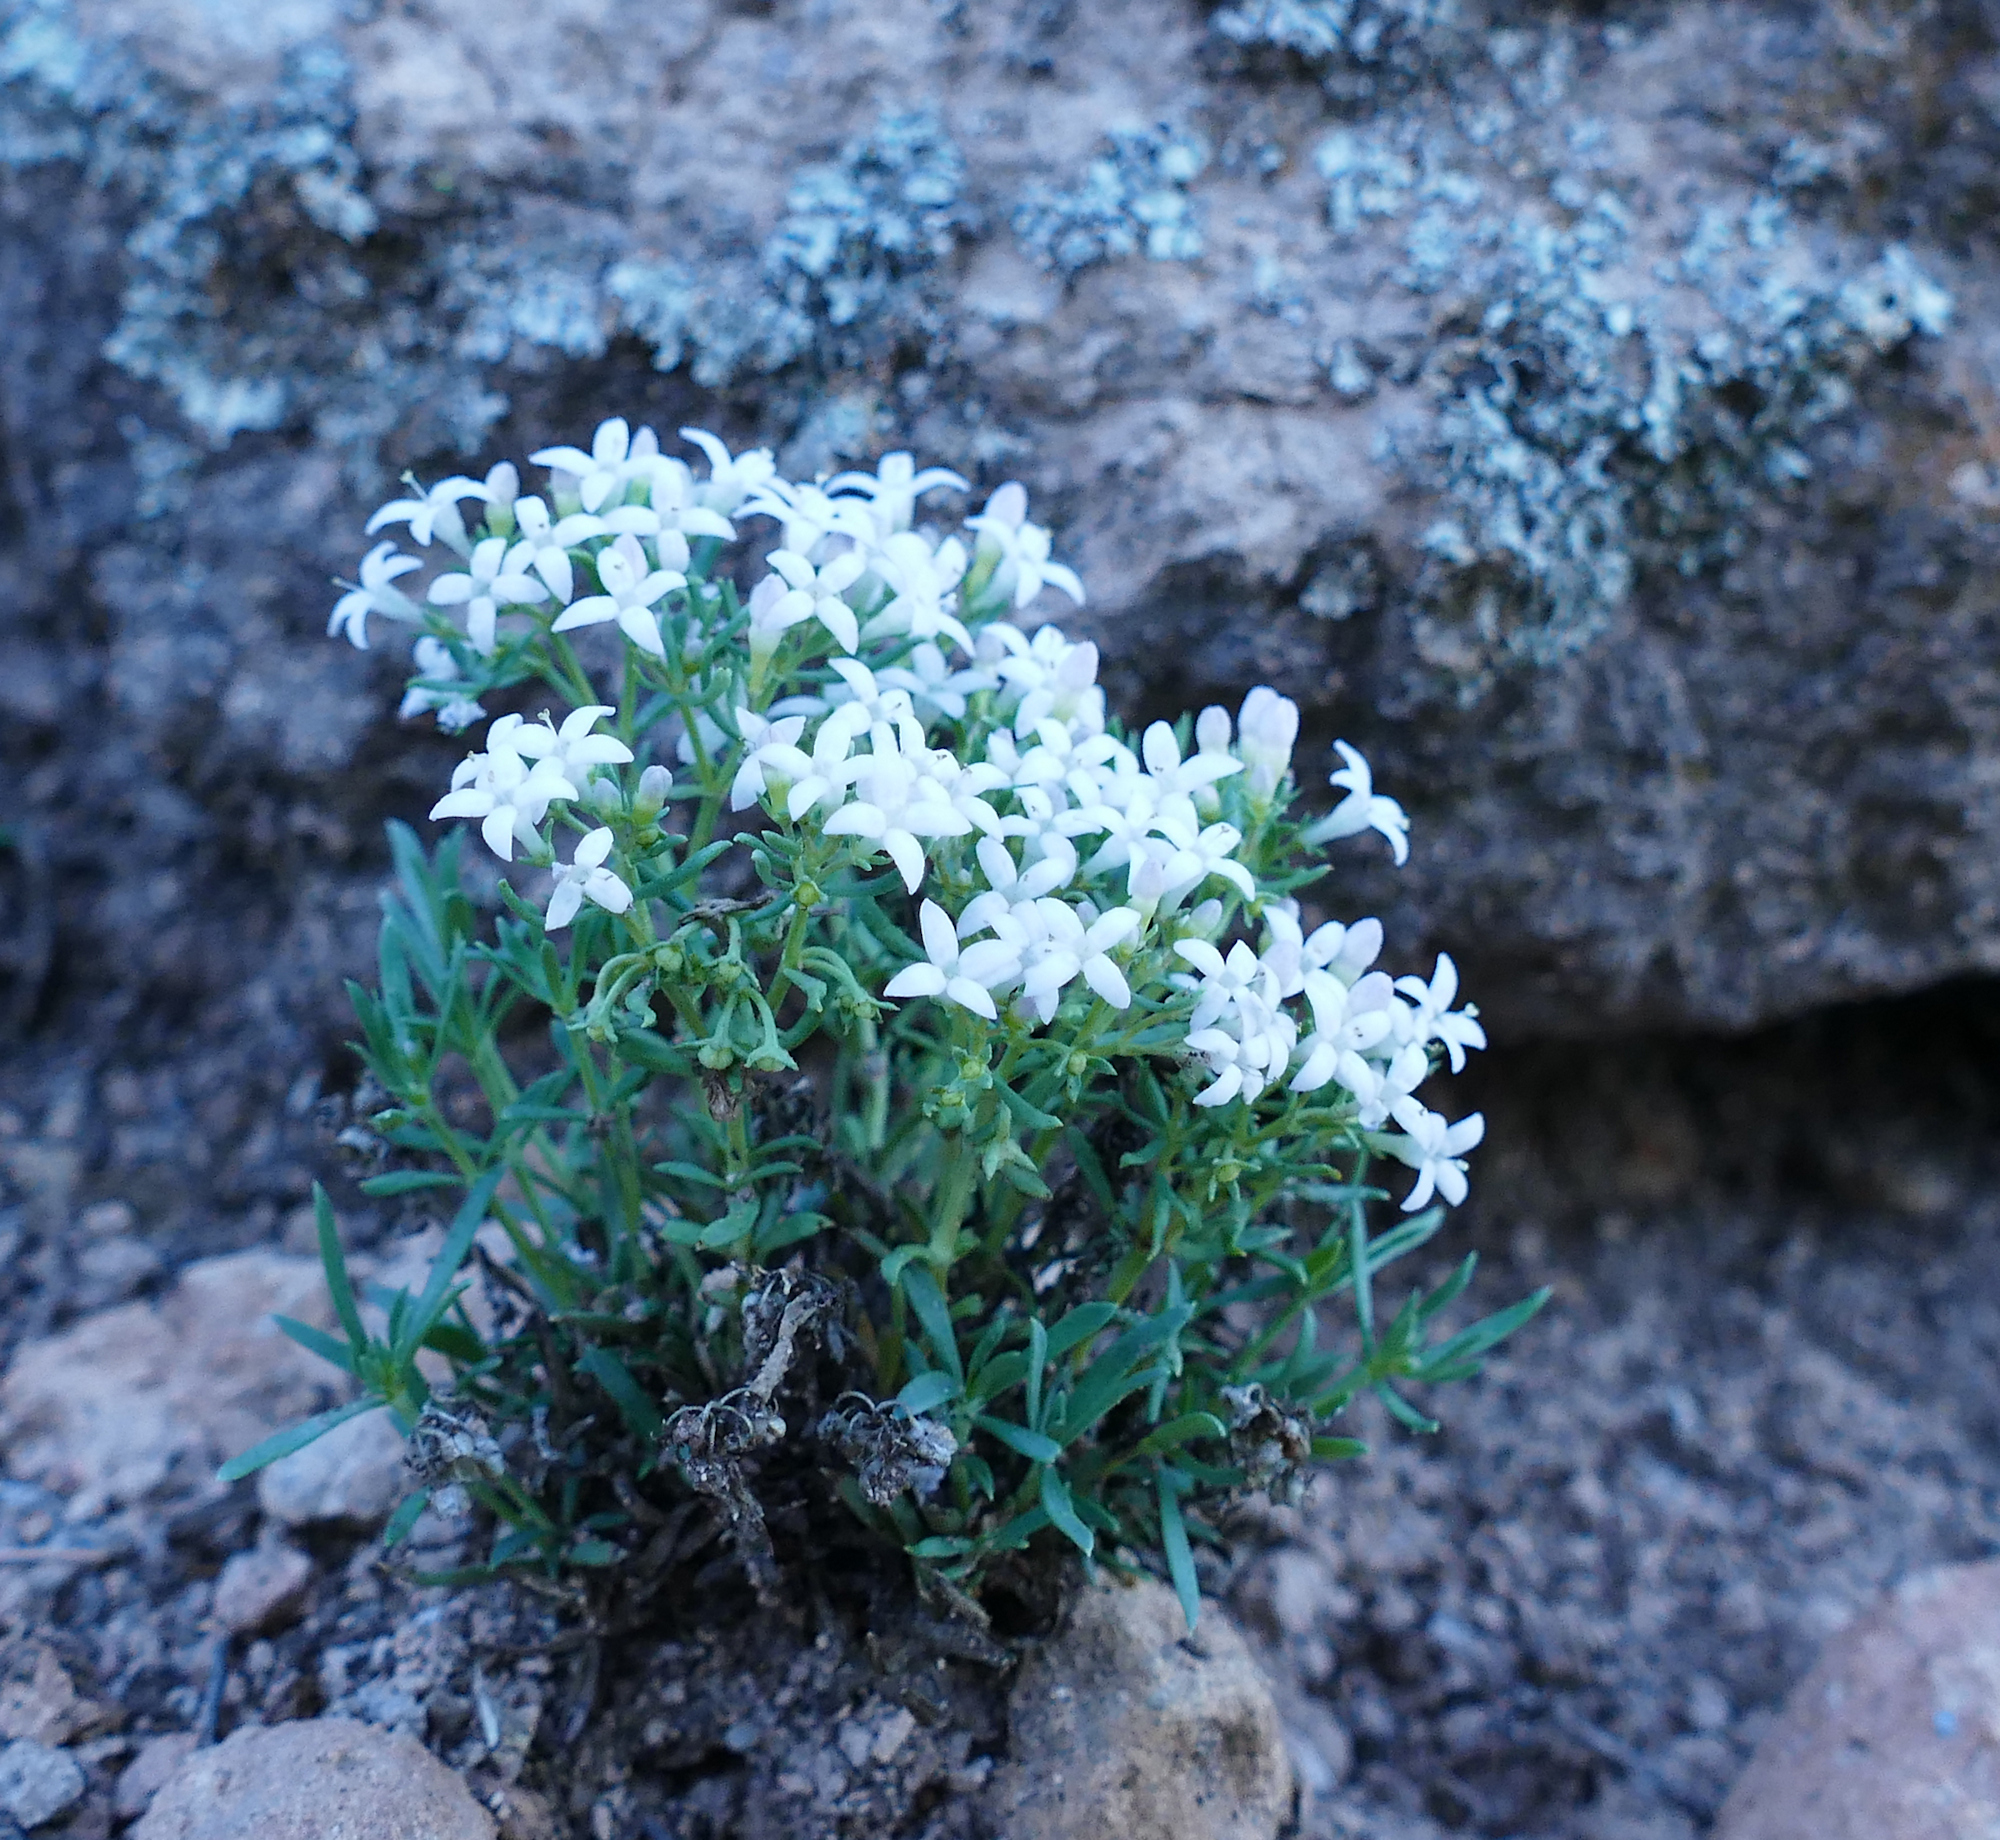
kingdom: Plantae
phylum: Tracheophyta
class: Magnoliopsida
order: Gentianales
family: Rubiaceae
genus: Houstonia
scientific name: Houstonia wrightii
